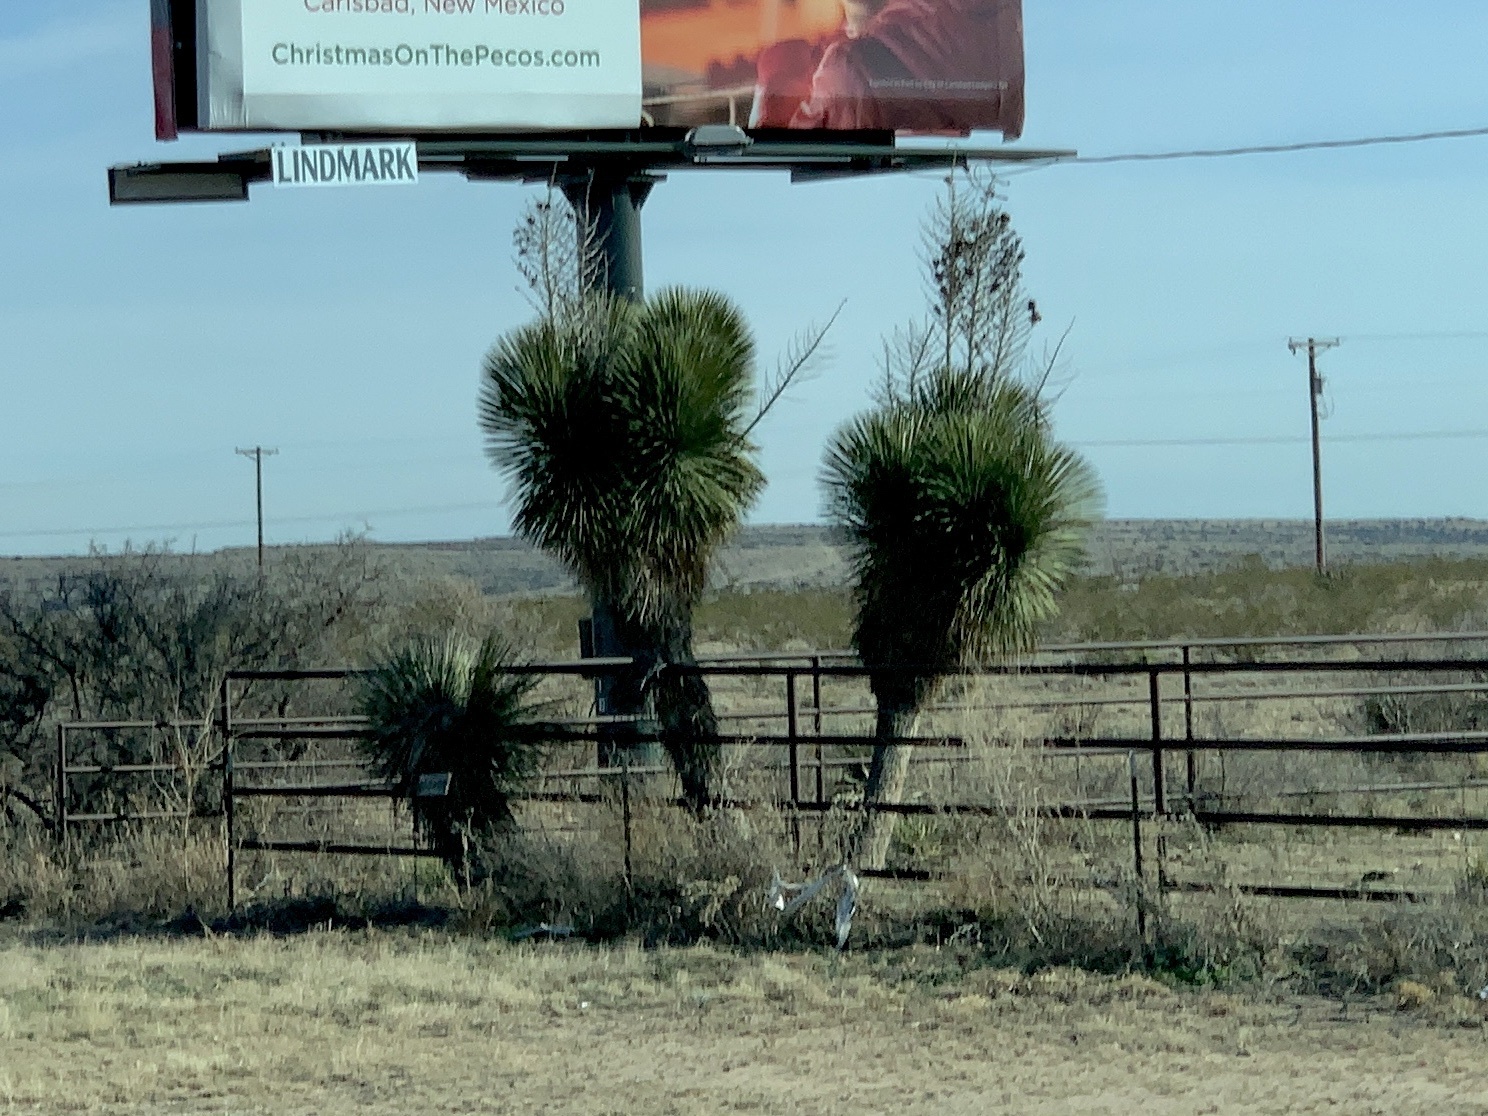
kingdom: Plantae
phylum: Tracheophyta
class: Liliopsida
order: Asparagales
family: Asparagaceae
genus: Yucca
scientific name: Yucca elata
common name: Palmella
